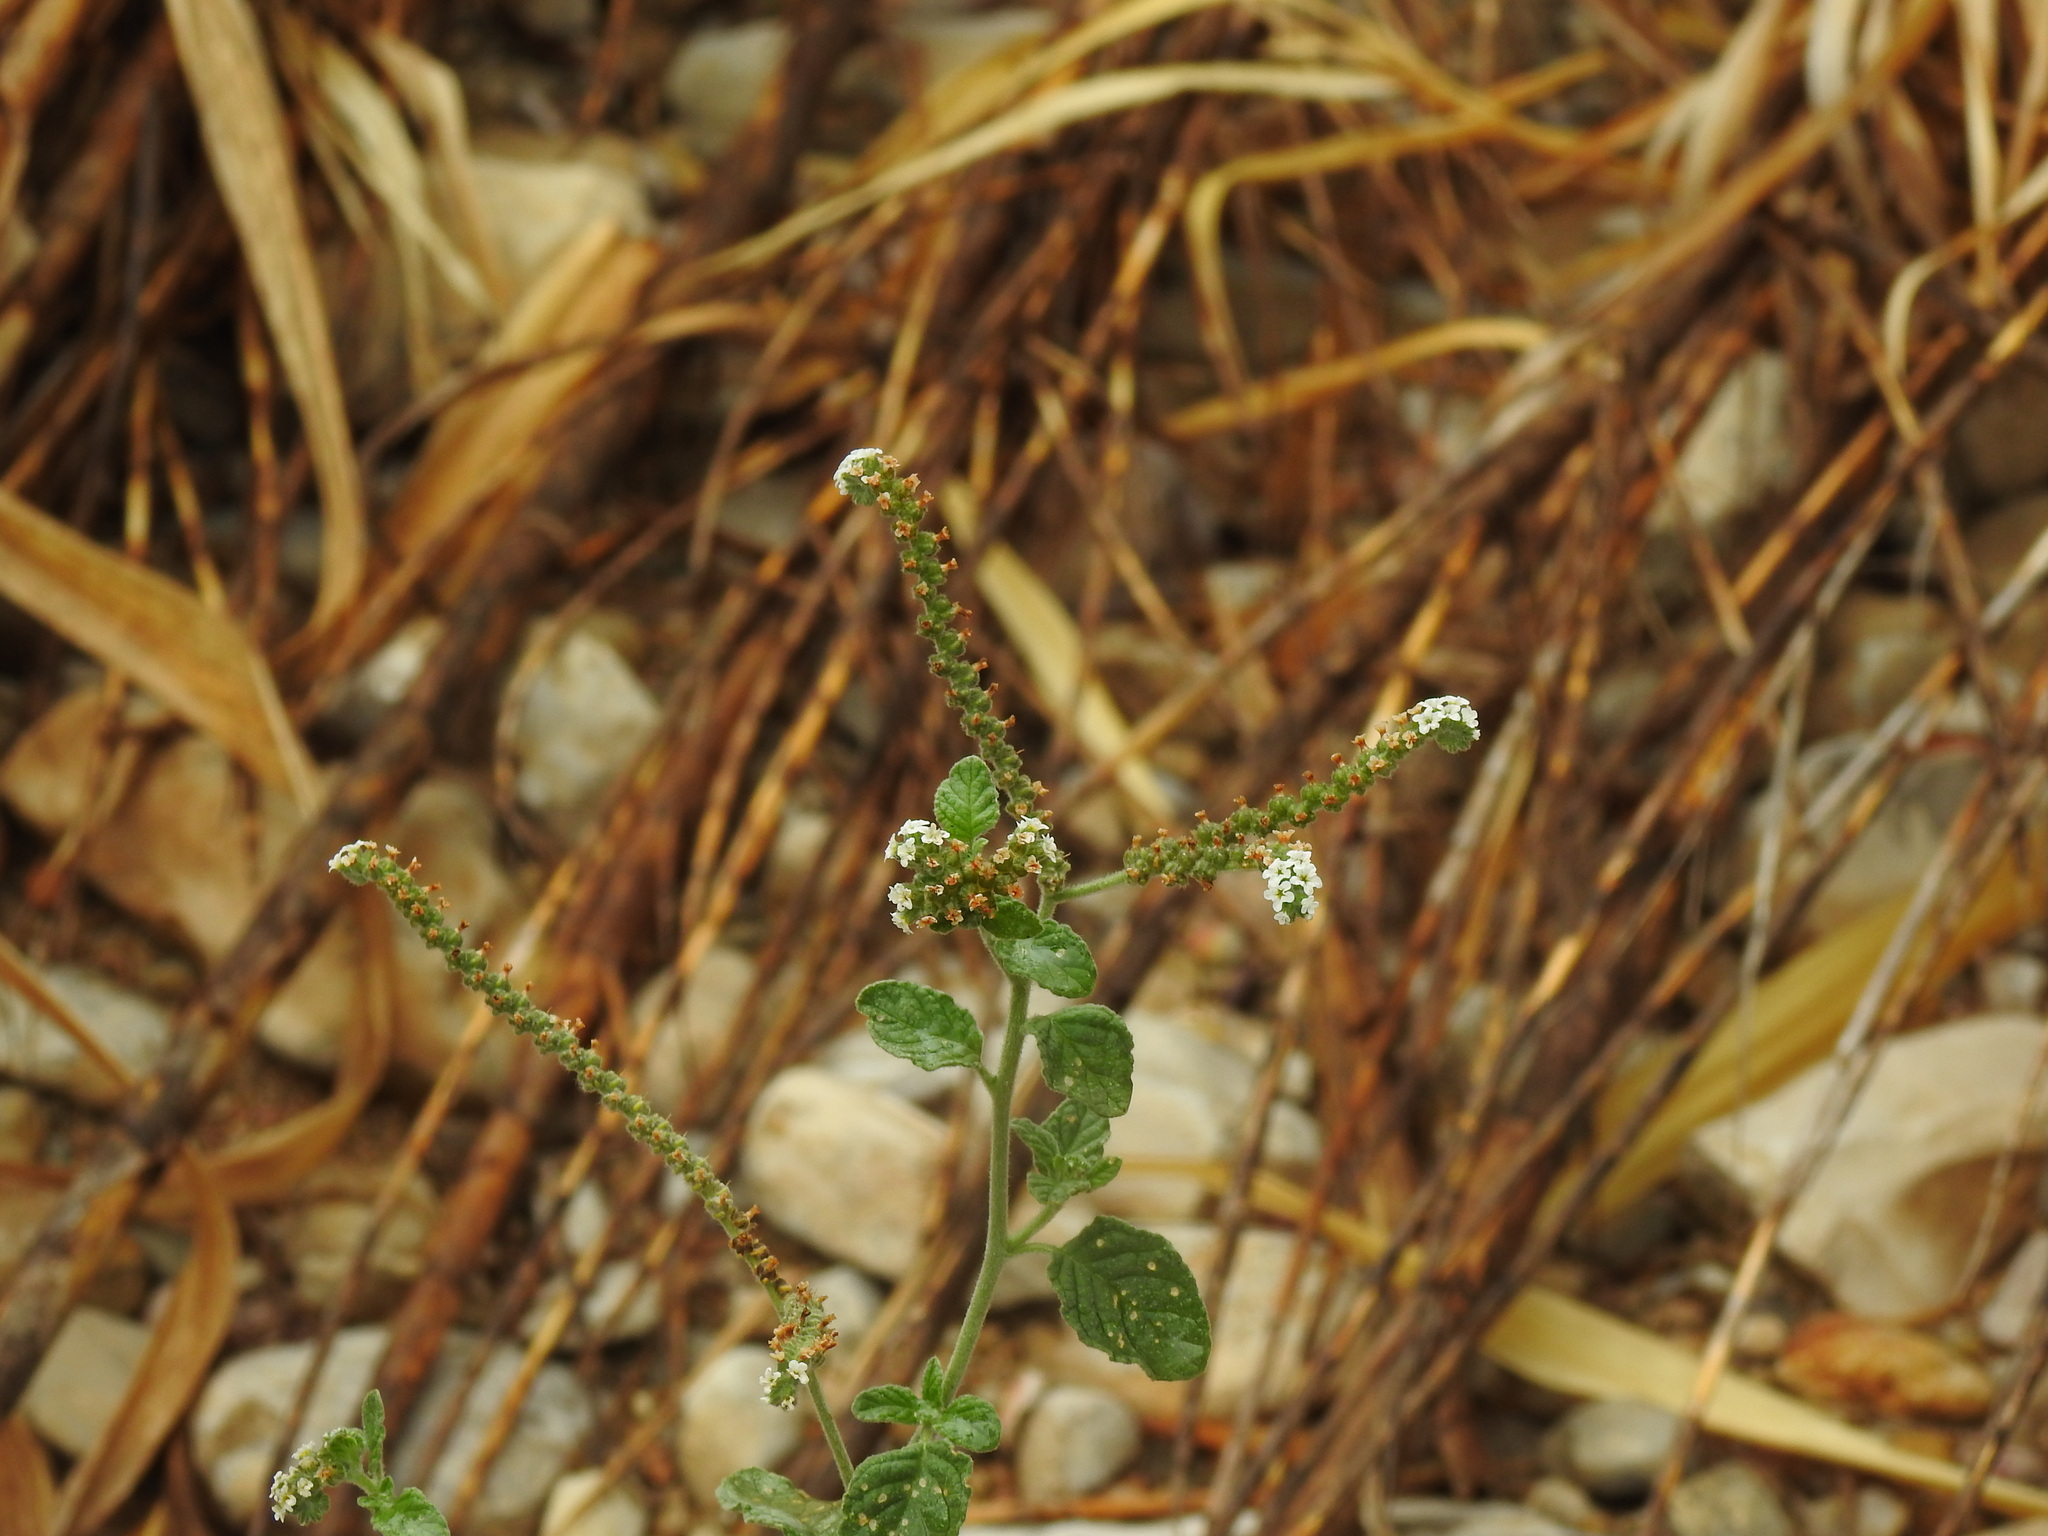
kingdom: Plantae
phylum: Tracheophyta
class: Magnoliopsida
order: Boraginales
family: Heliotropiaceae
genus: Heliotropium
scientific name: Heliotropium europaeum
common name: European heliotrope
